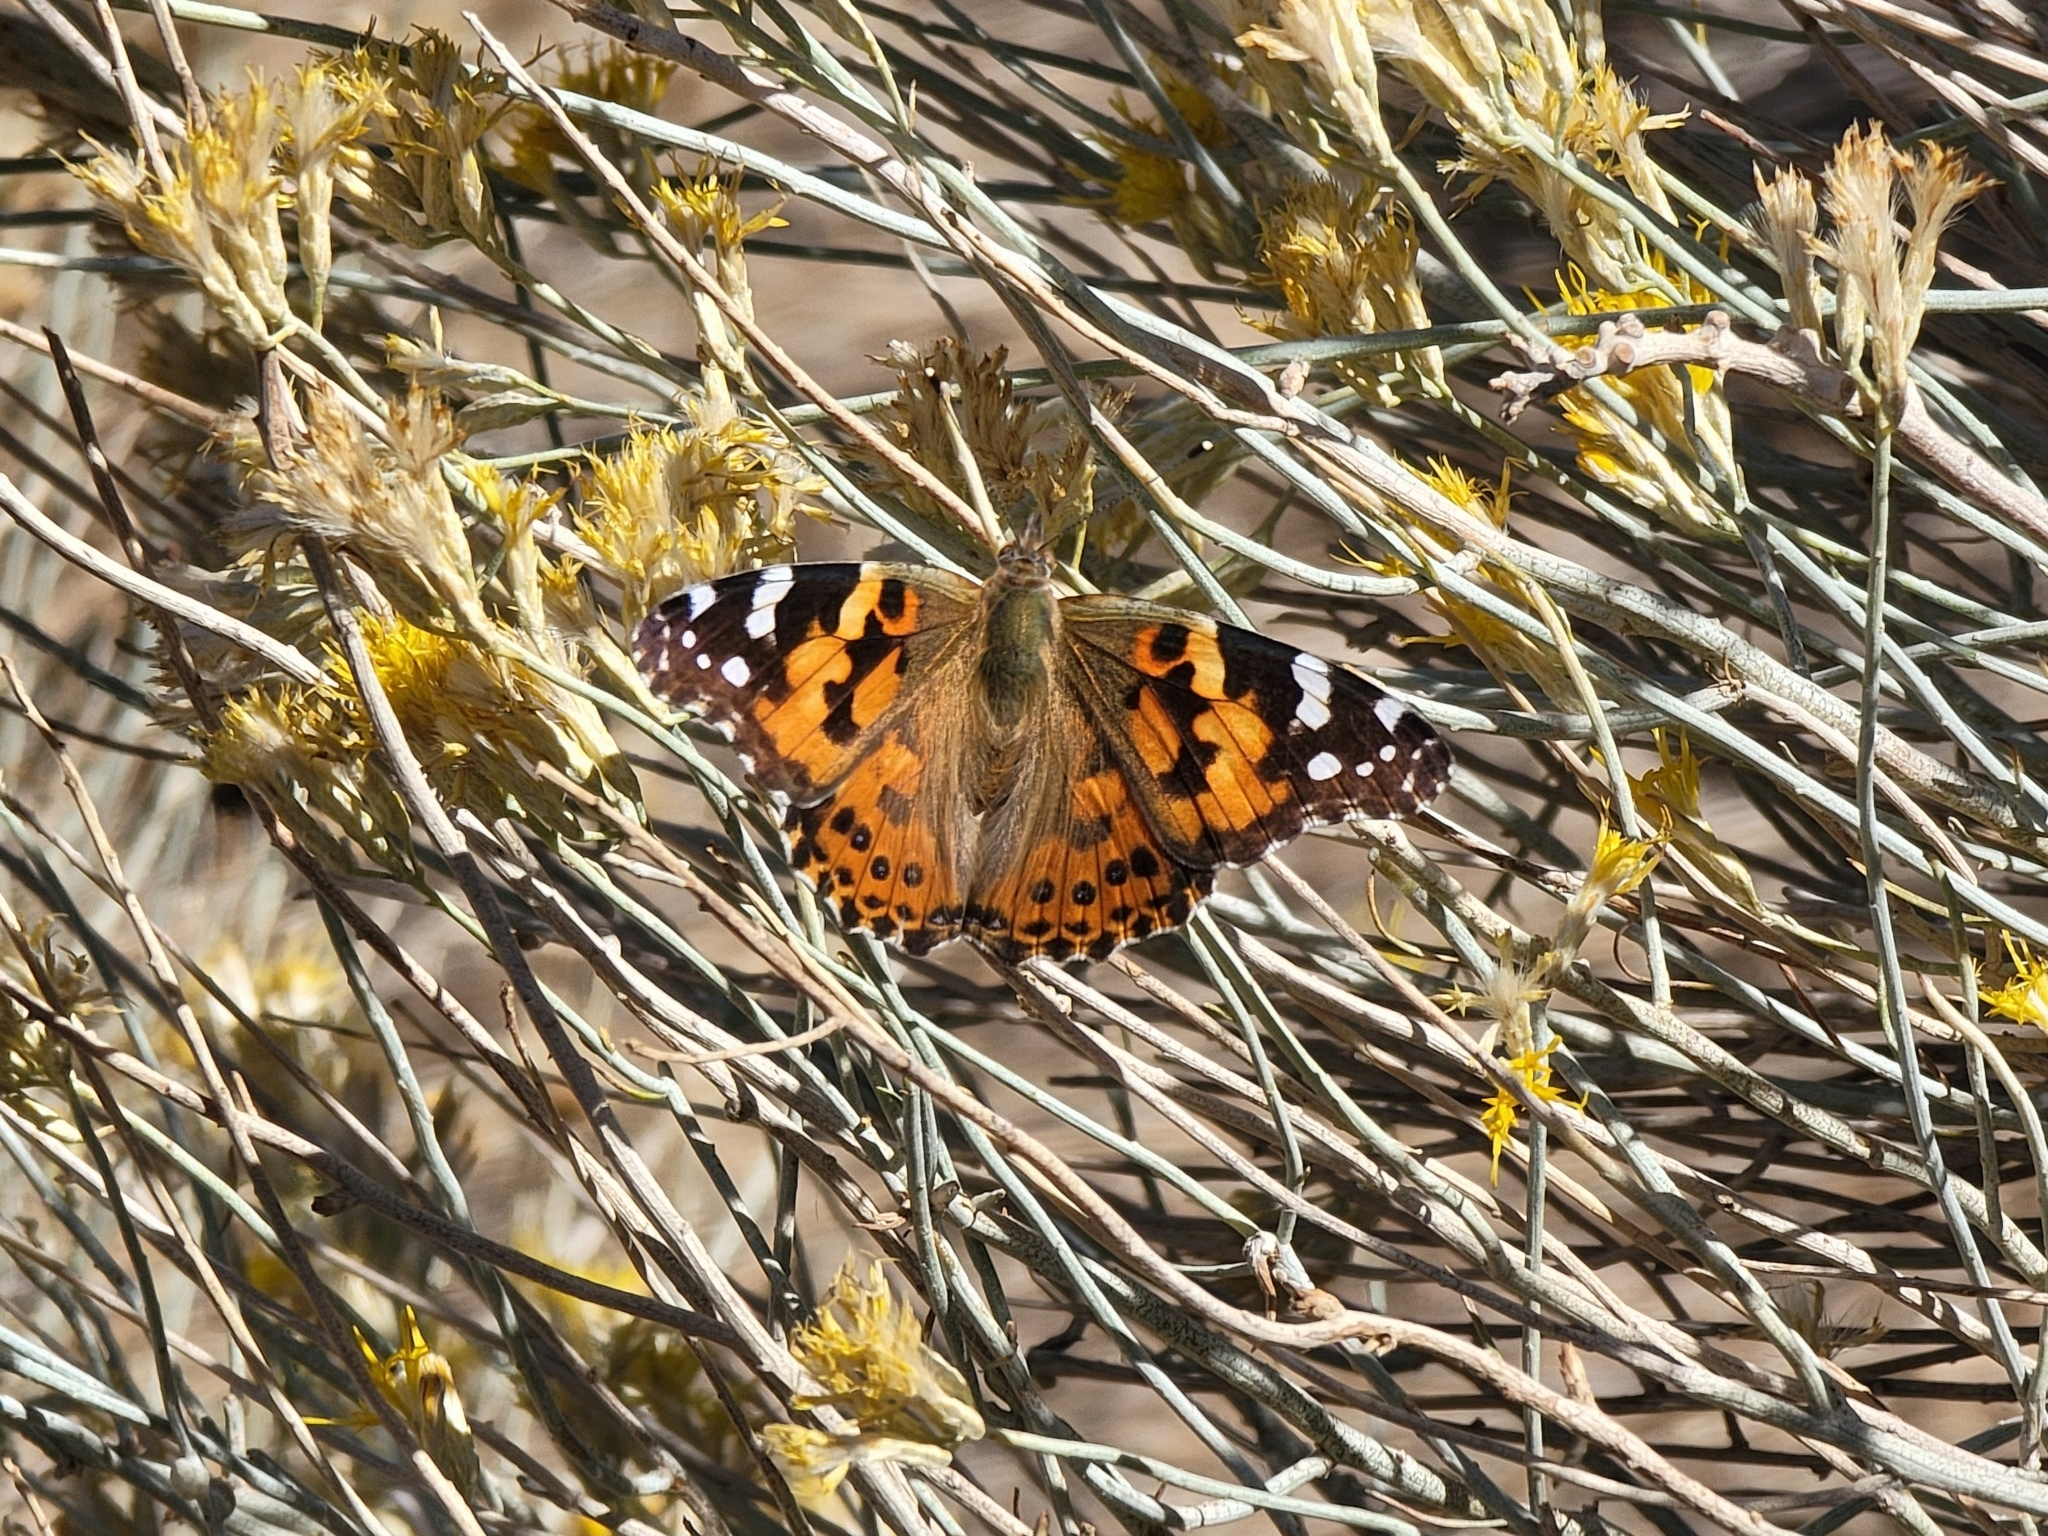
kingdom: Animalia
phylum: Arthropoda
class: Insecta
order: Lepidoptera
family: Nymphalidae
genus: Vanessa
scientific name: Vanessa cardui
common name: Painted lady
